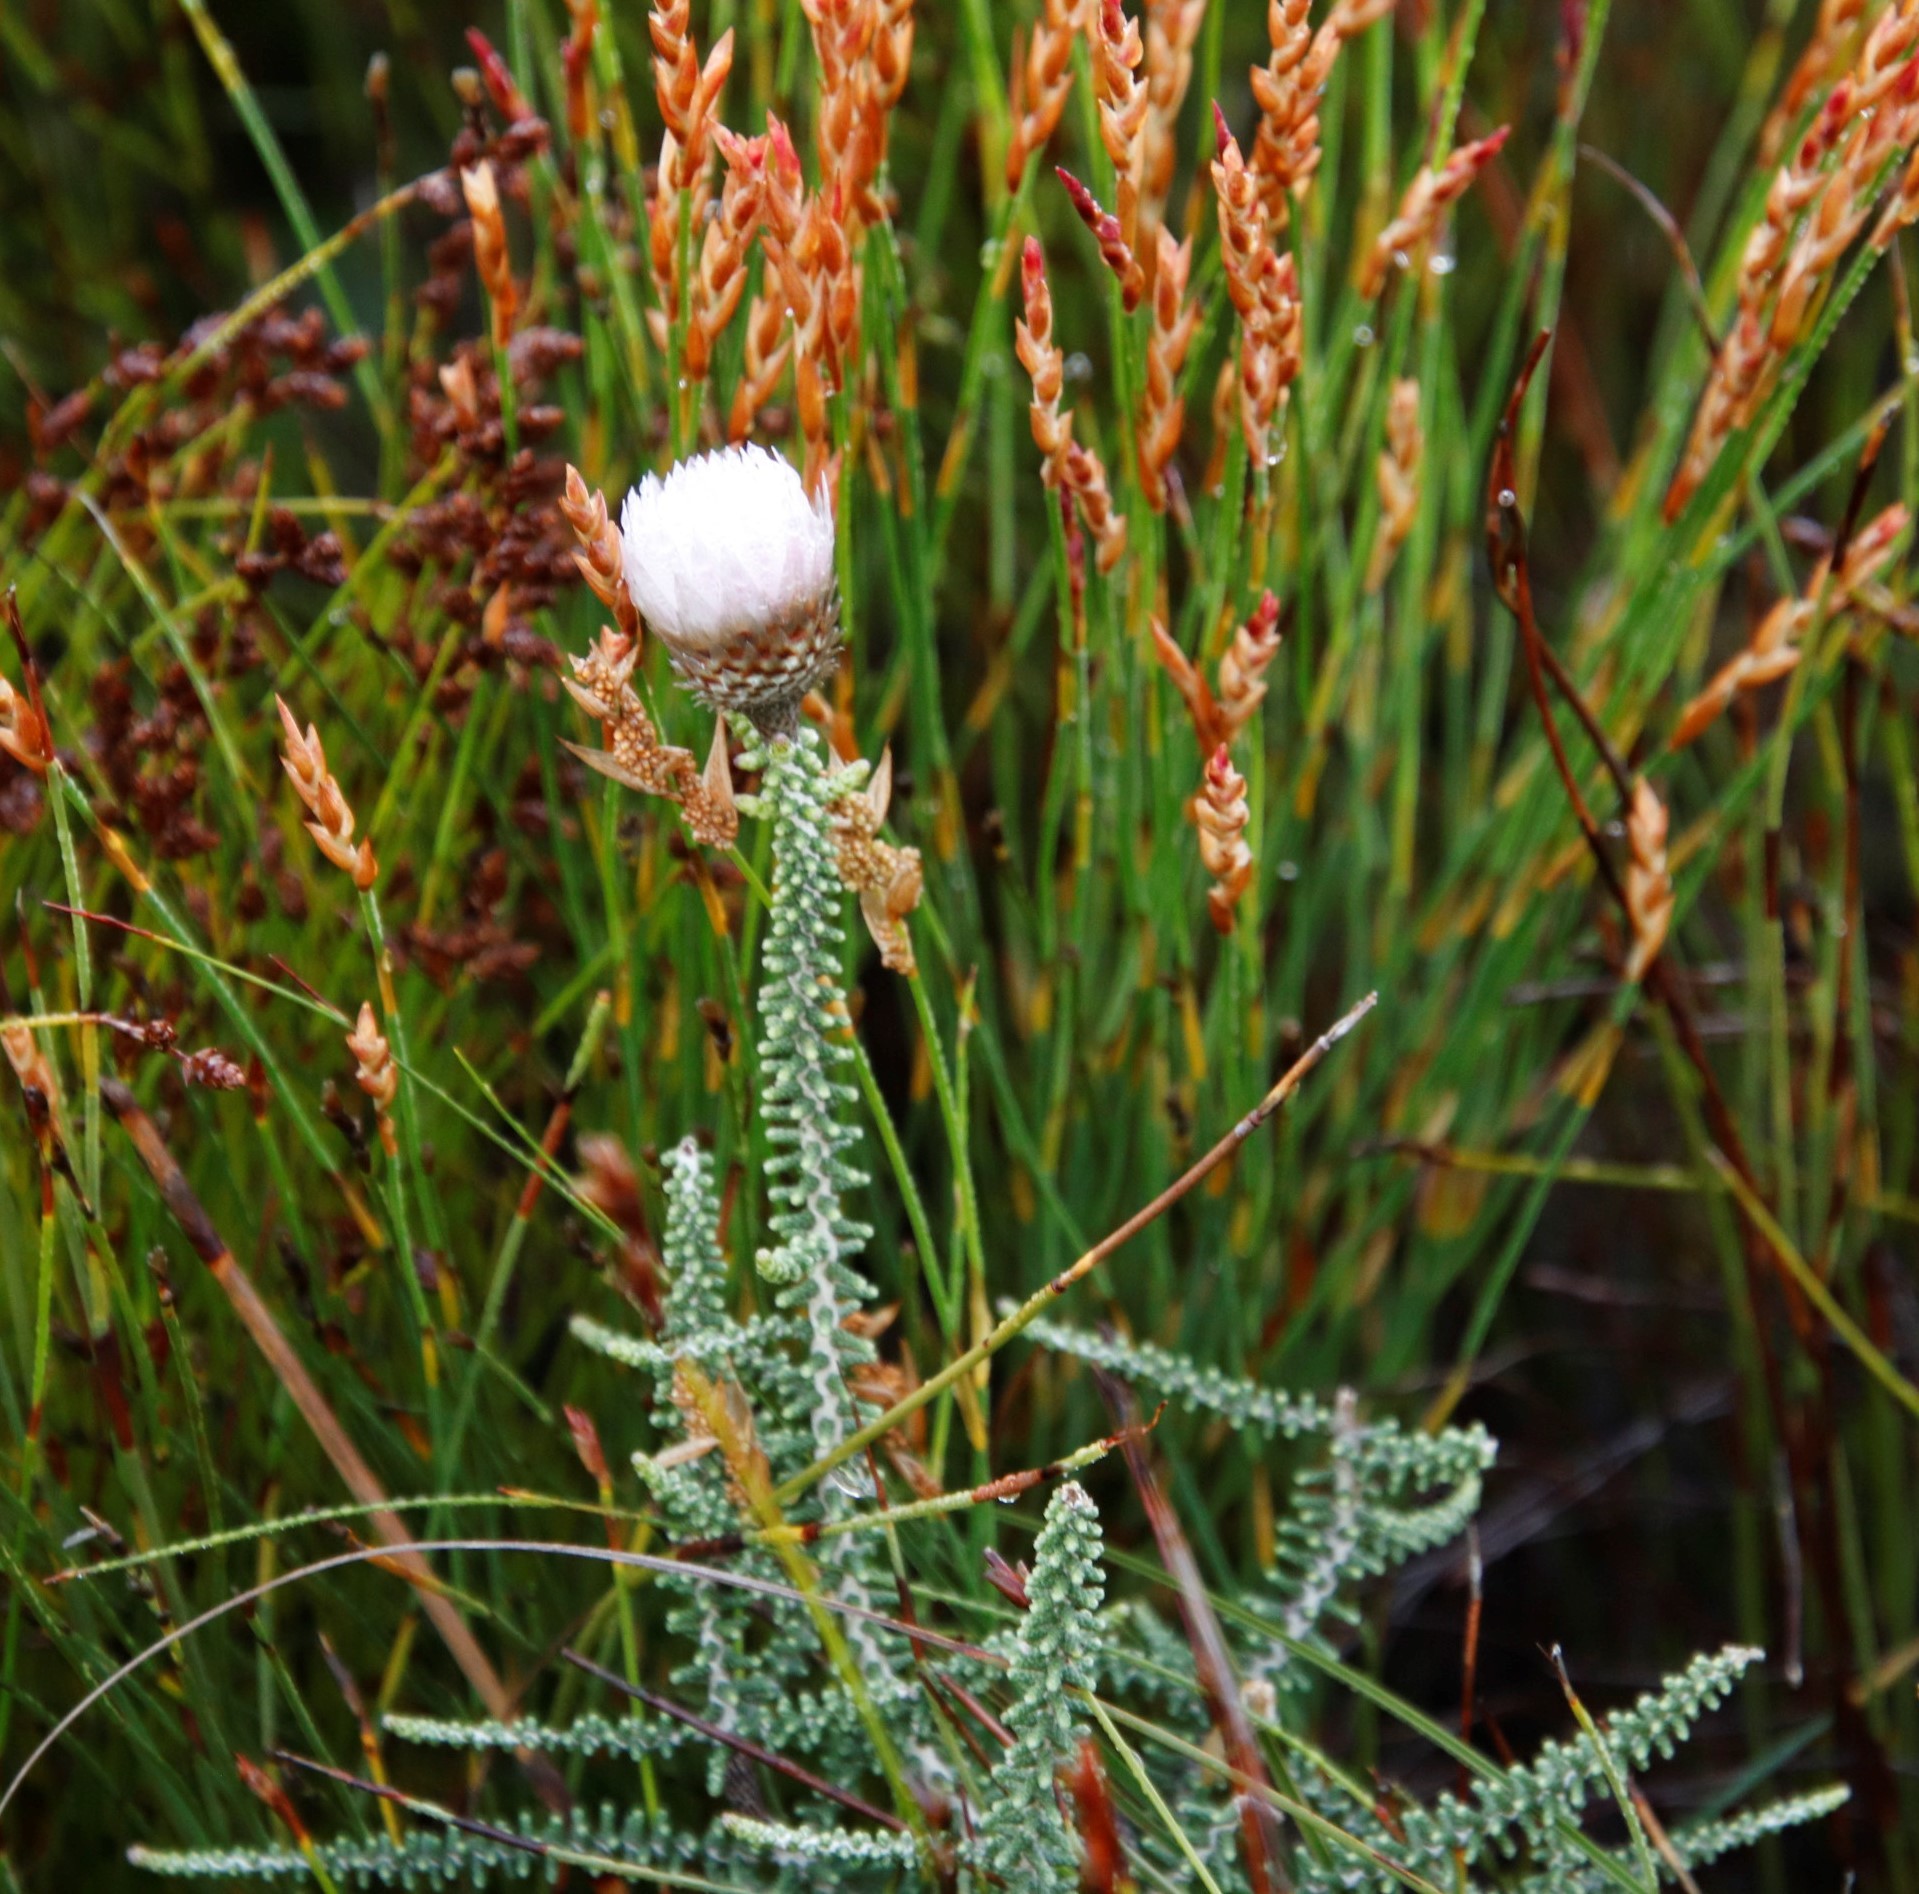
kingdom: Plantae
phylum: Tracheophyta
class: Magnoliopsida
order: Asterales
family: Asteraceae
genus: Phaenocoma
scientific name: Phaenocoma prolifera
